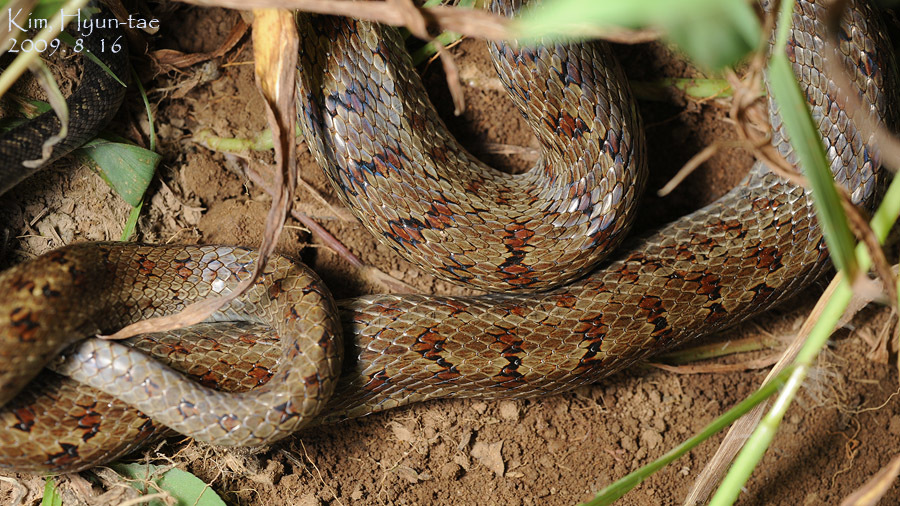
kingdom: Animalia
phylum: Chordata
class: Squamata
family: Colubridae
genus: Elaphe
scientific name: Elaphe dione
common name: Dione ratsnake
